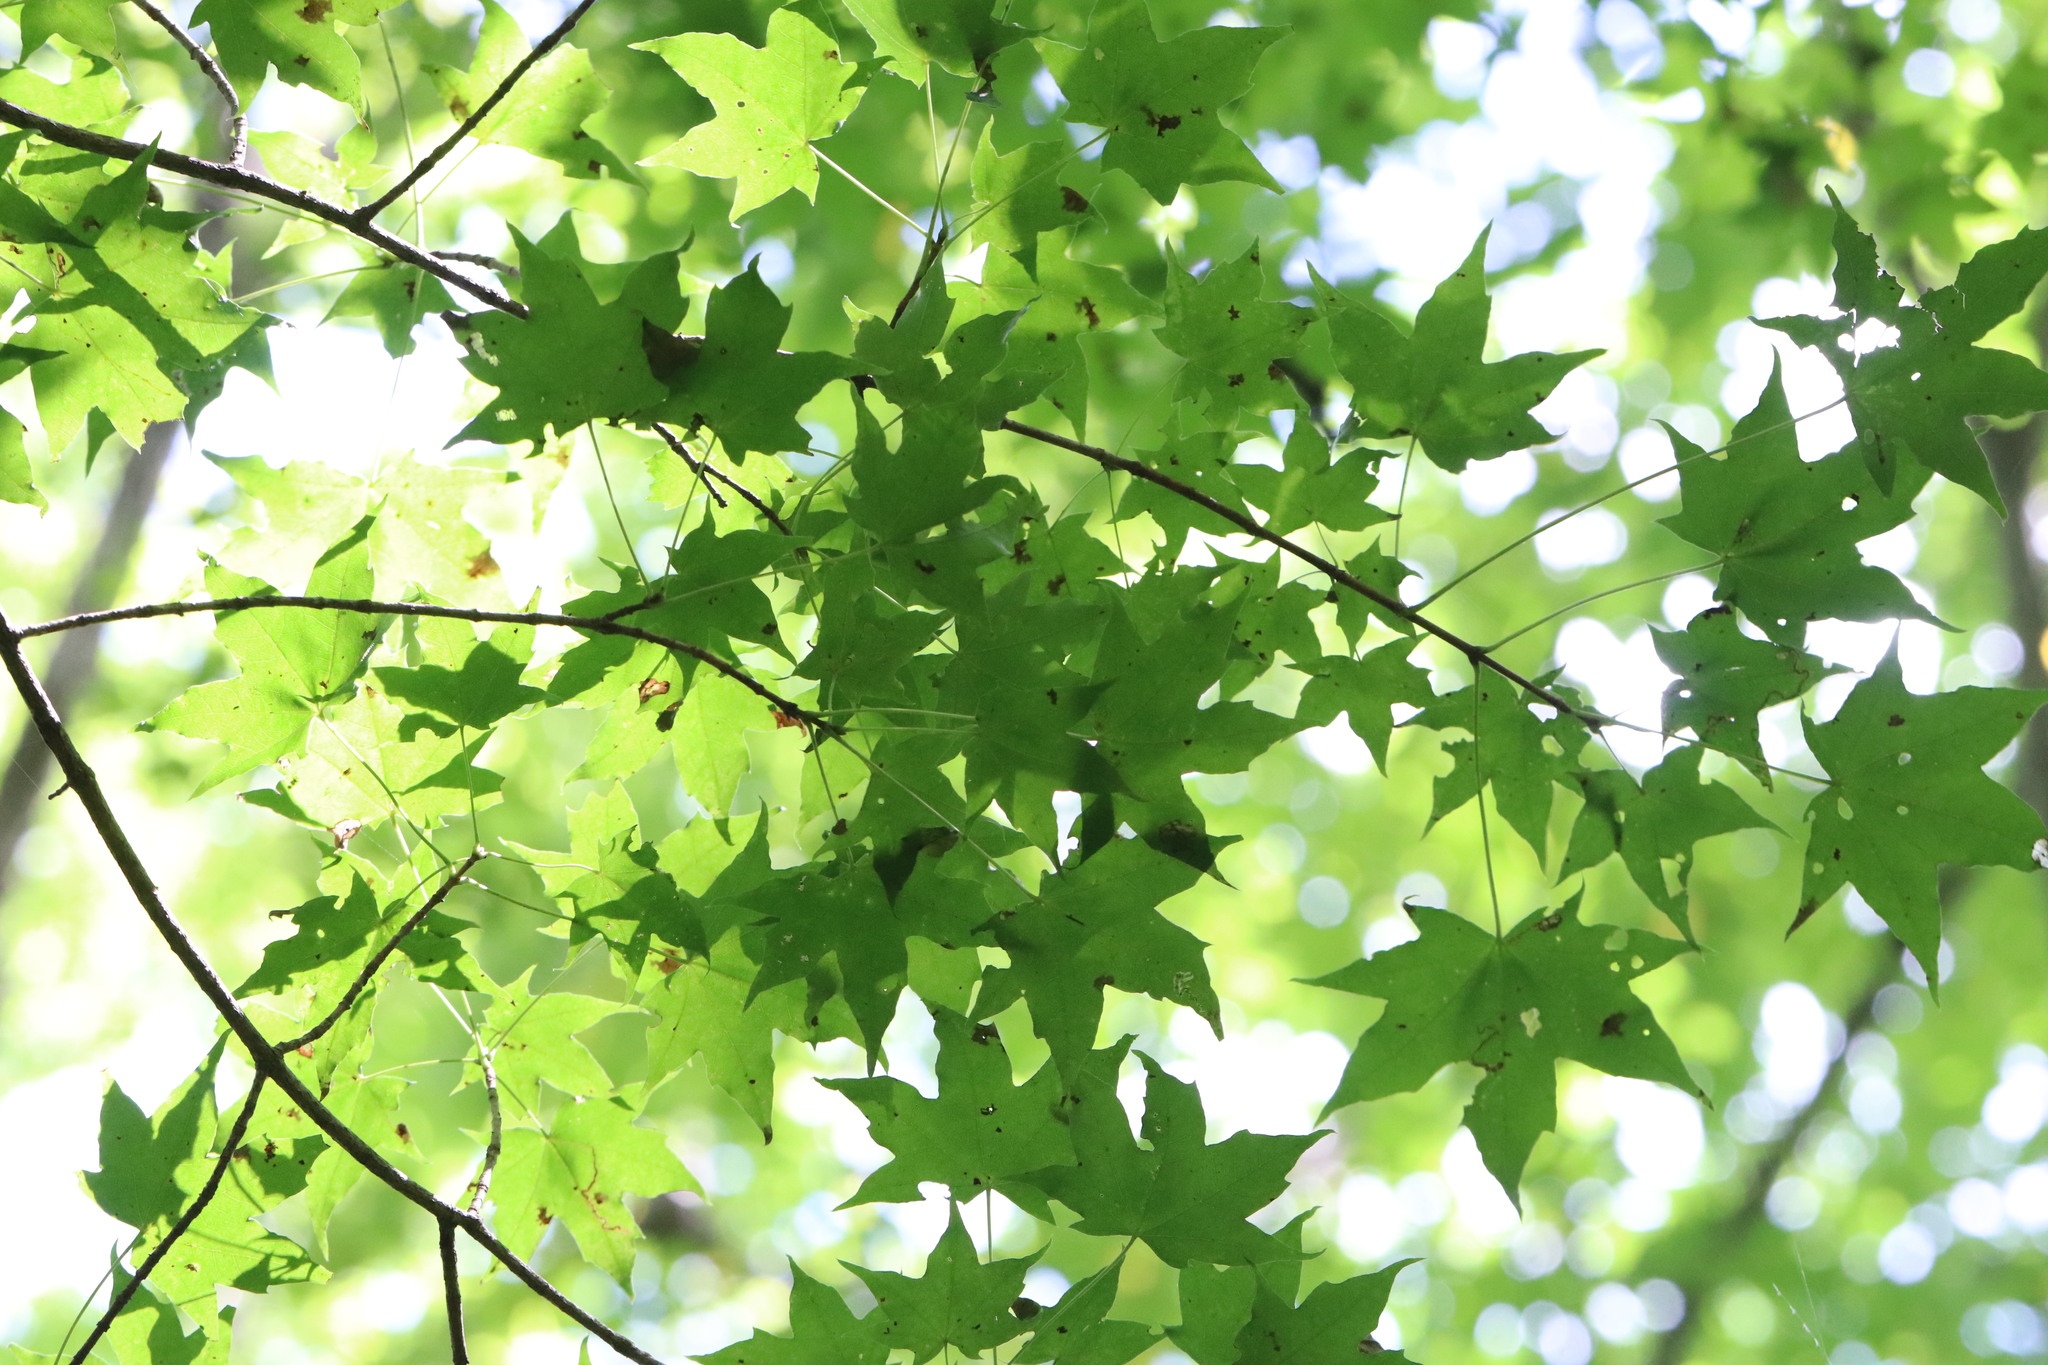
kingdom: Plantae
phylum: Tracheophyta
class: Magnoliopsida
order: Sapindales
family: Sapindaceae
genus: Acer
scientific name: Acer pictum
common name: The painted maple
